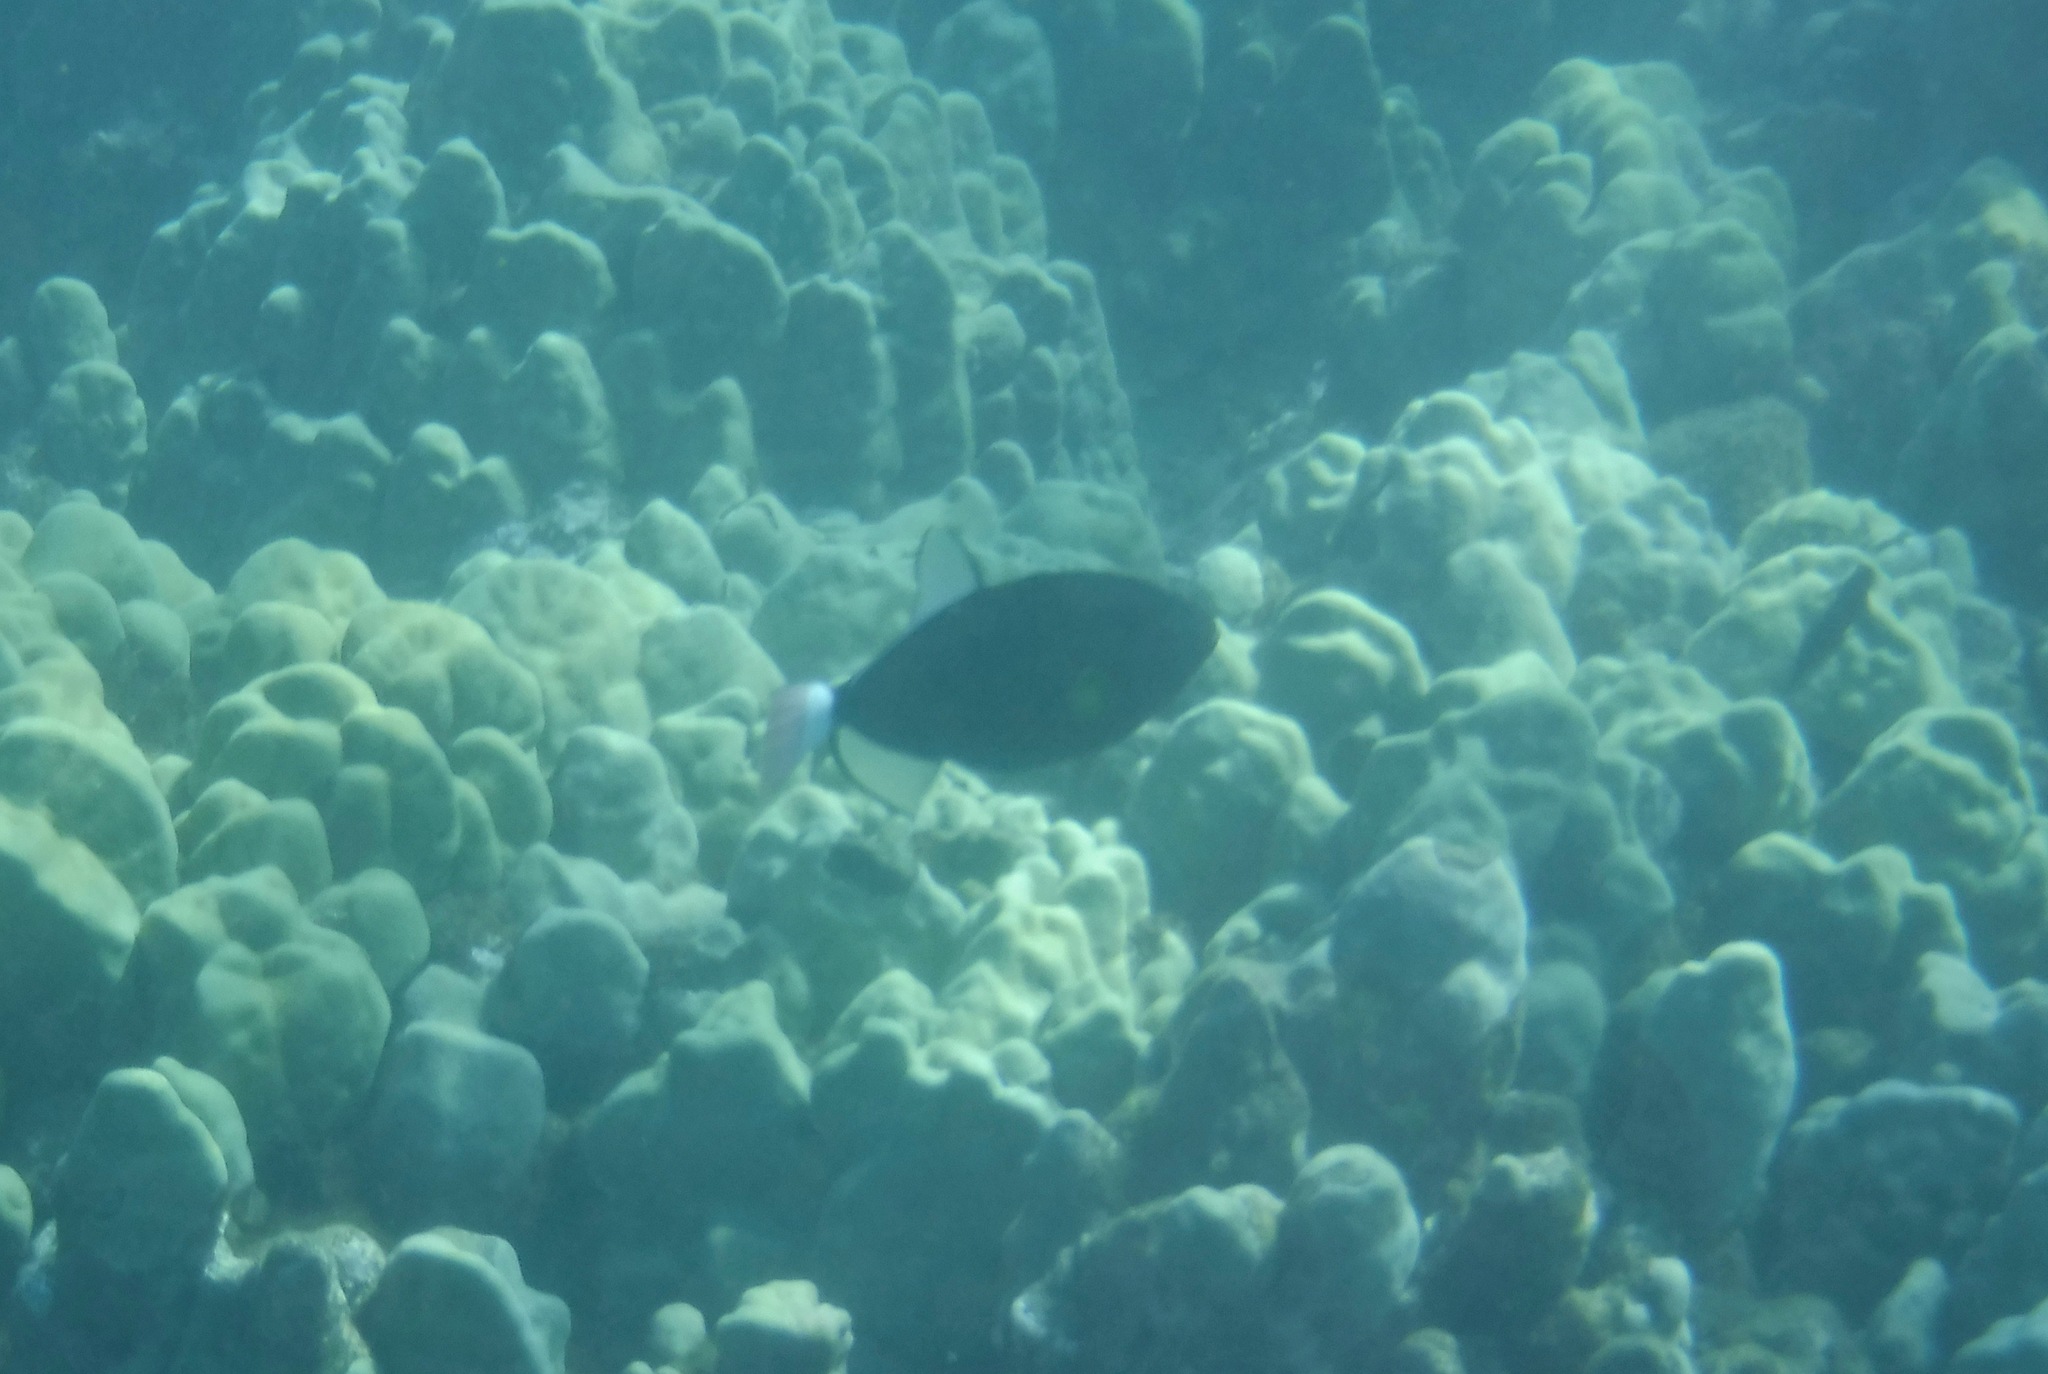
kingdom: Animalia
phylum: Chordata
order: Tetraodontiformes
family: Balistidae
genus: Melichthys
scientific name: Melichthys vidua
